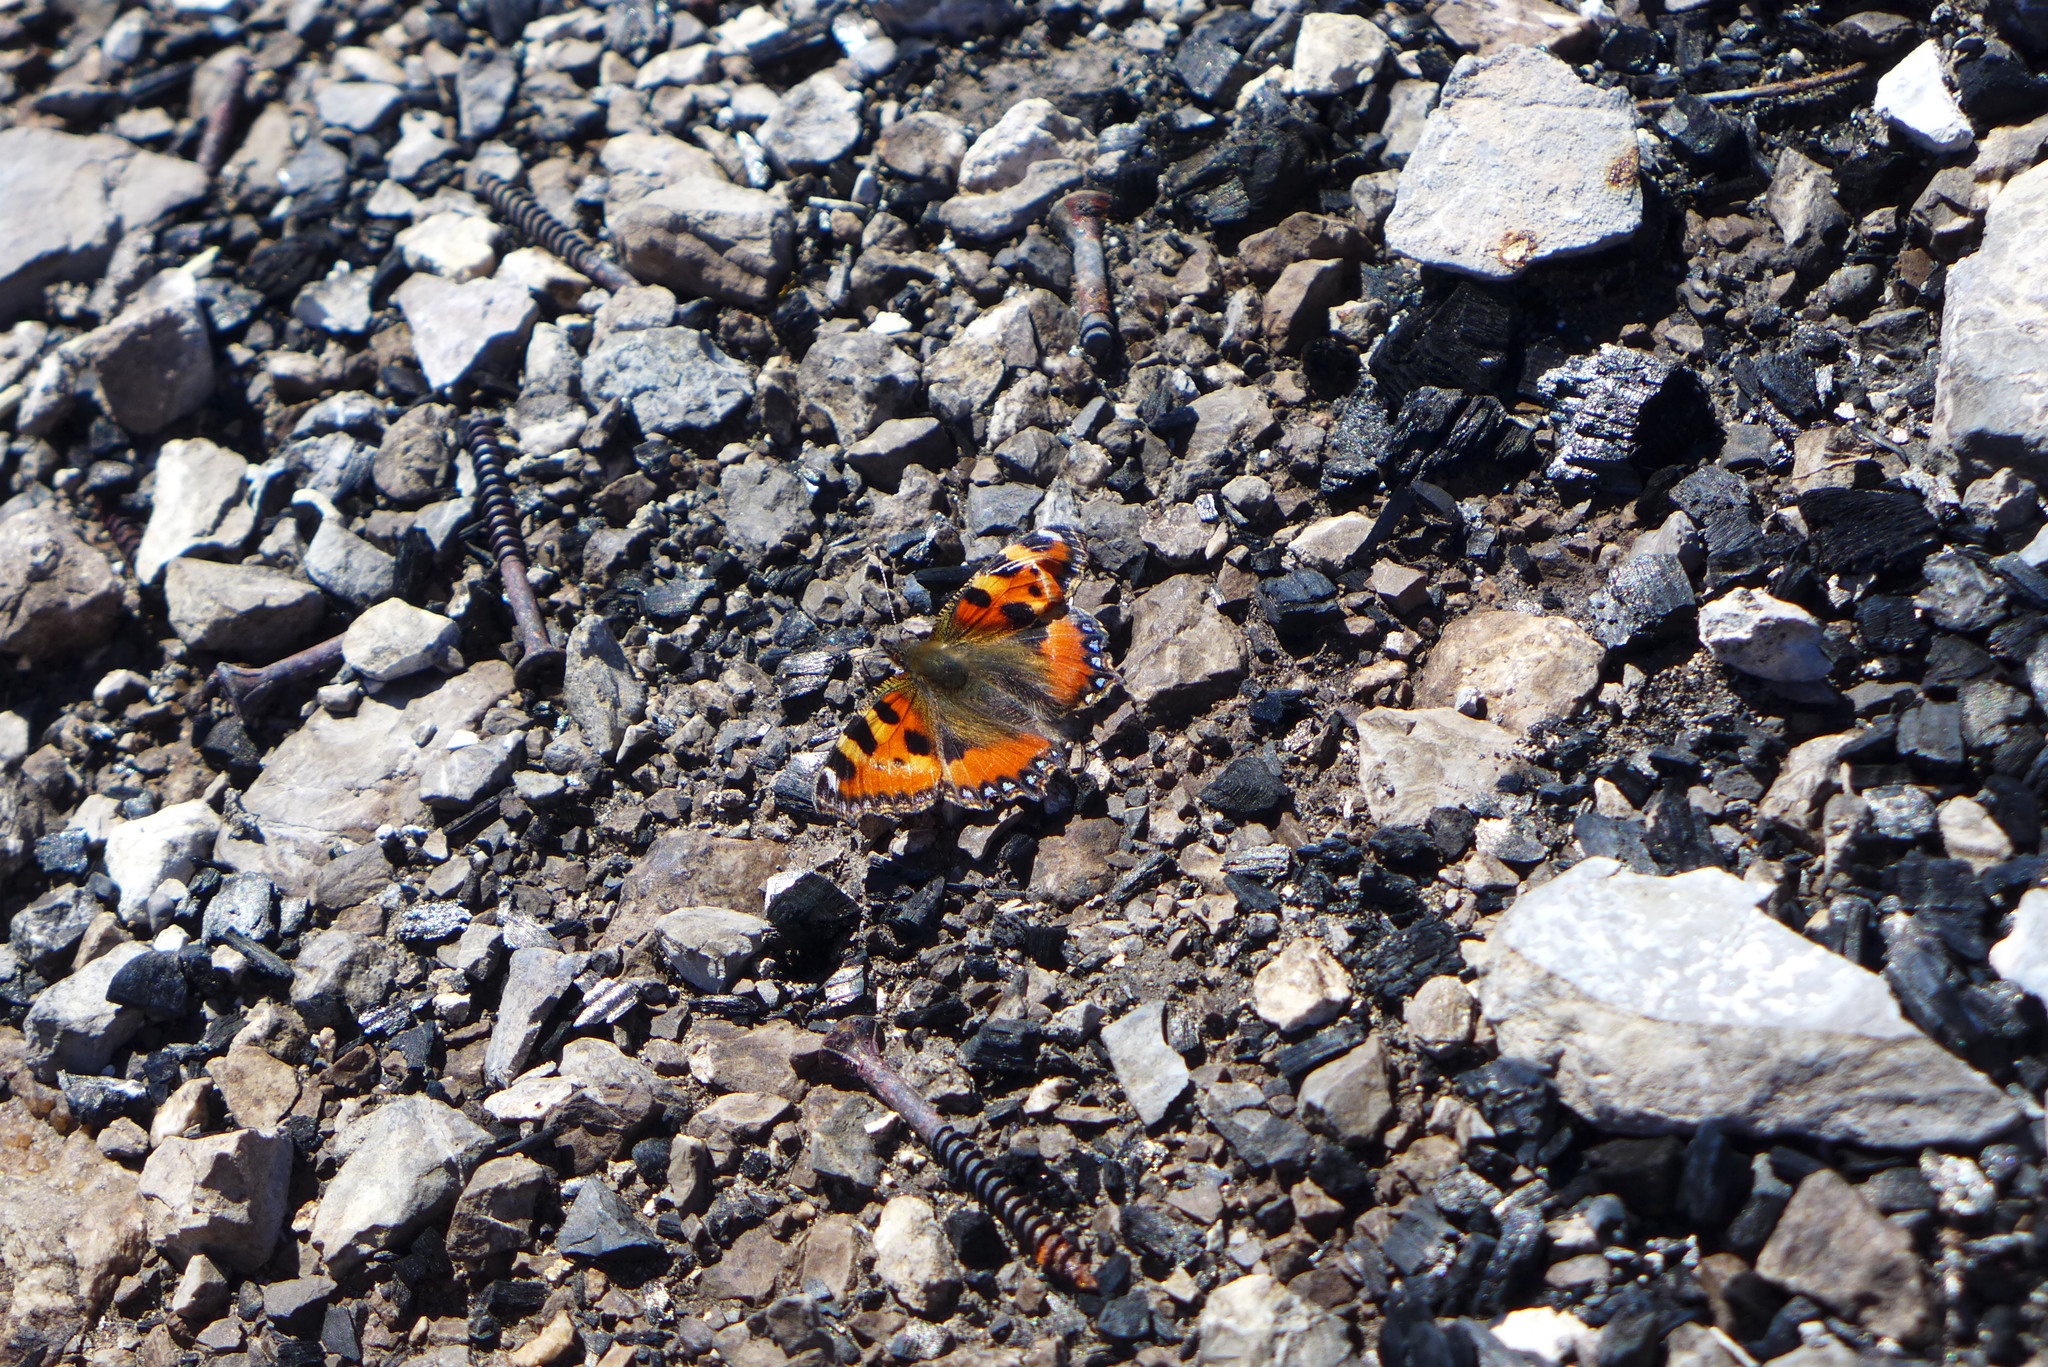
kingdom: Animalia
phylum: Arthropoda
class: Insecta
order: Lepidoptera
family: Nymphalidae
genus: Aglais
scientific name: Aglais urticae
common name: Small tortoiseshell
